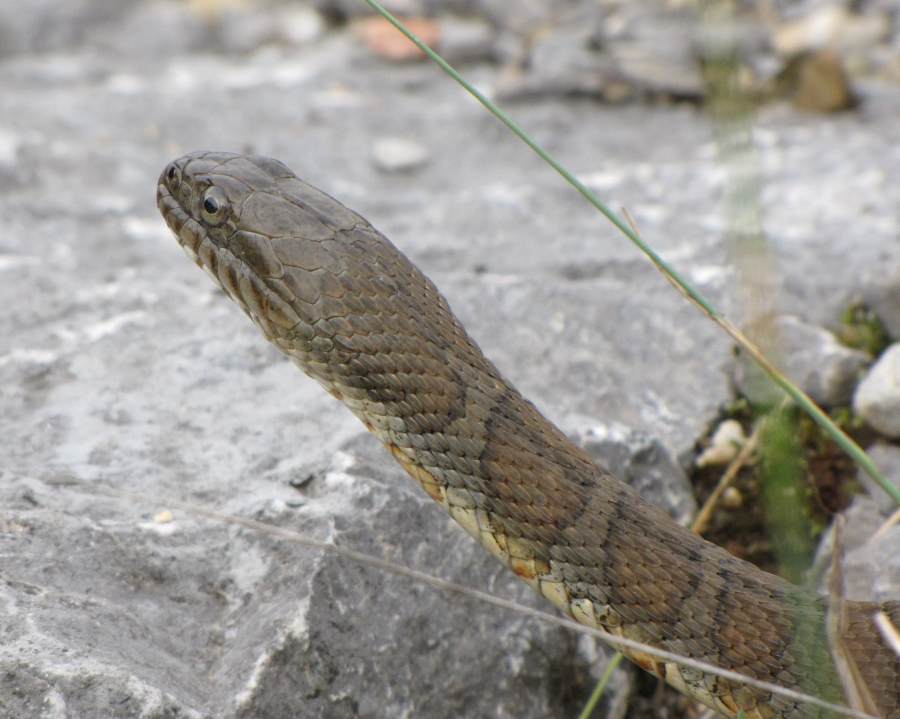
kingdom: Animalia
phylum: Chordata
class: Squamata
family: Colubridae
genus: Nerodia
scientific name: Nerodia sipedon
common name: Northern water snake
